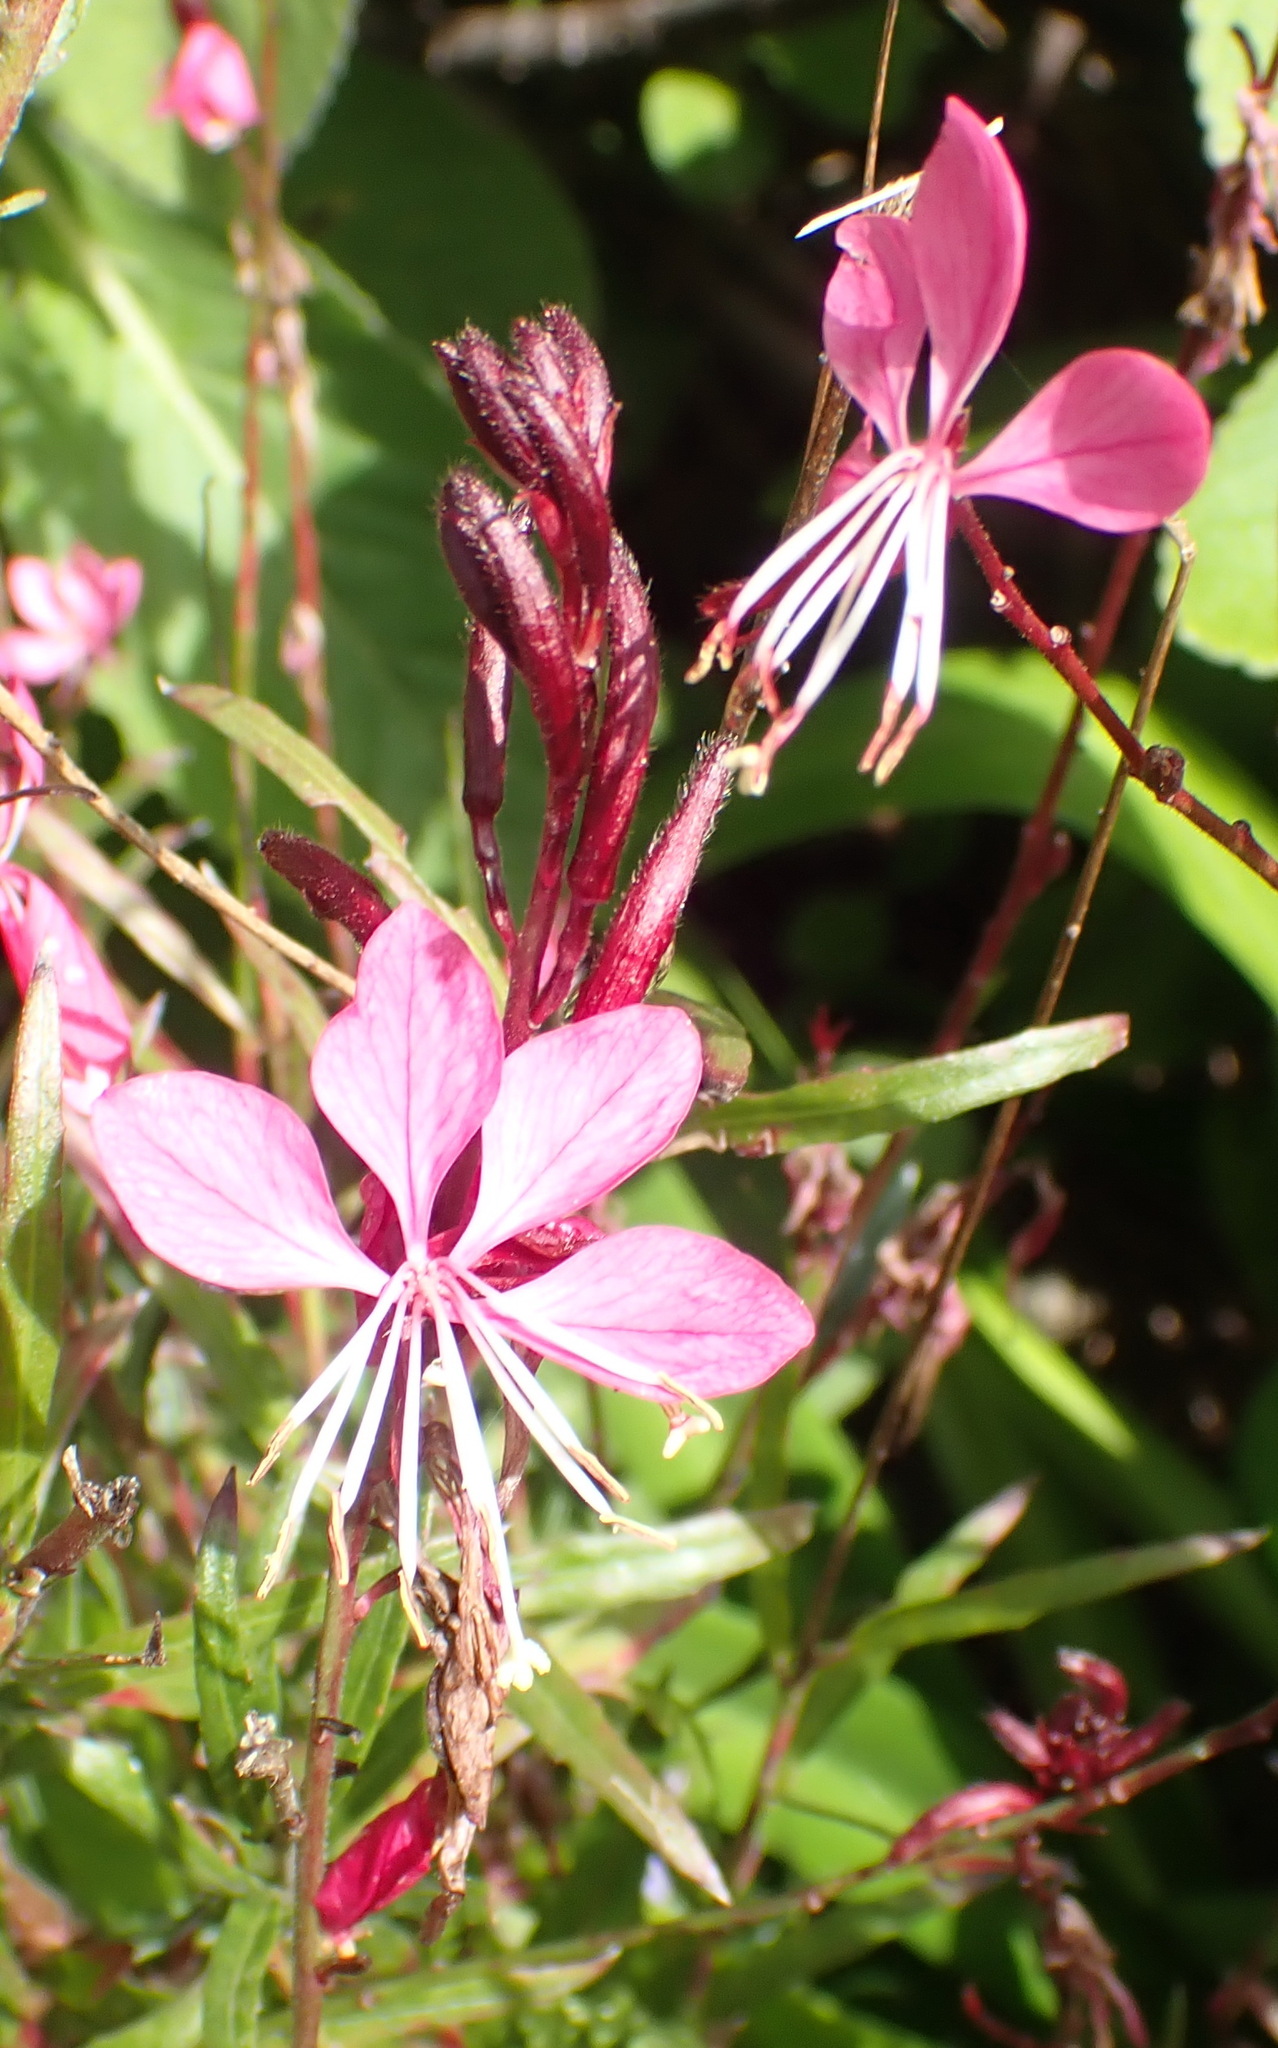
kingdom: Plantae
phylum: Tracheophyta
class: Magnoliopsida
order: Myrtales
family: Onagraceae
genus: Oenothera
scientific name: Oenothera lindheimeri
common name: Lindheimer's beeblossom
